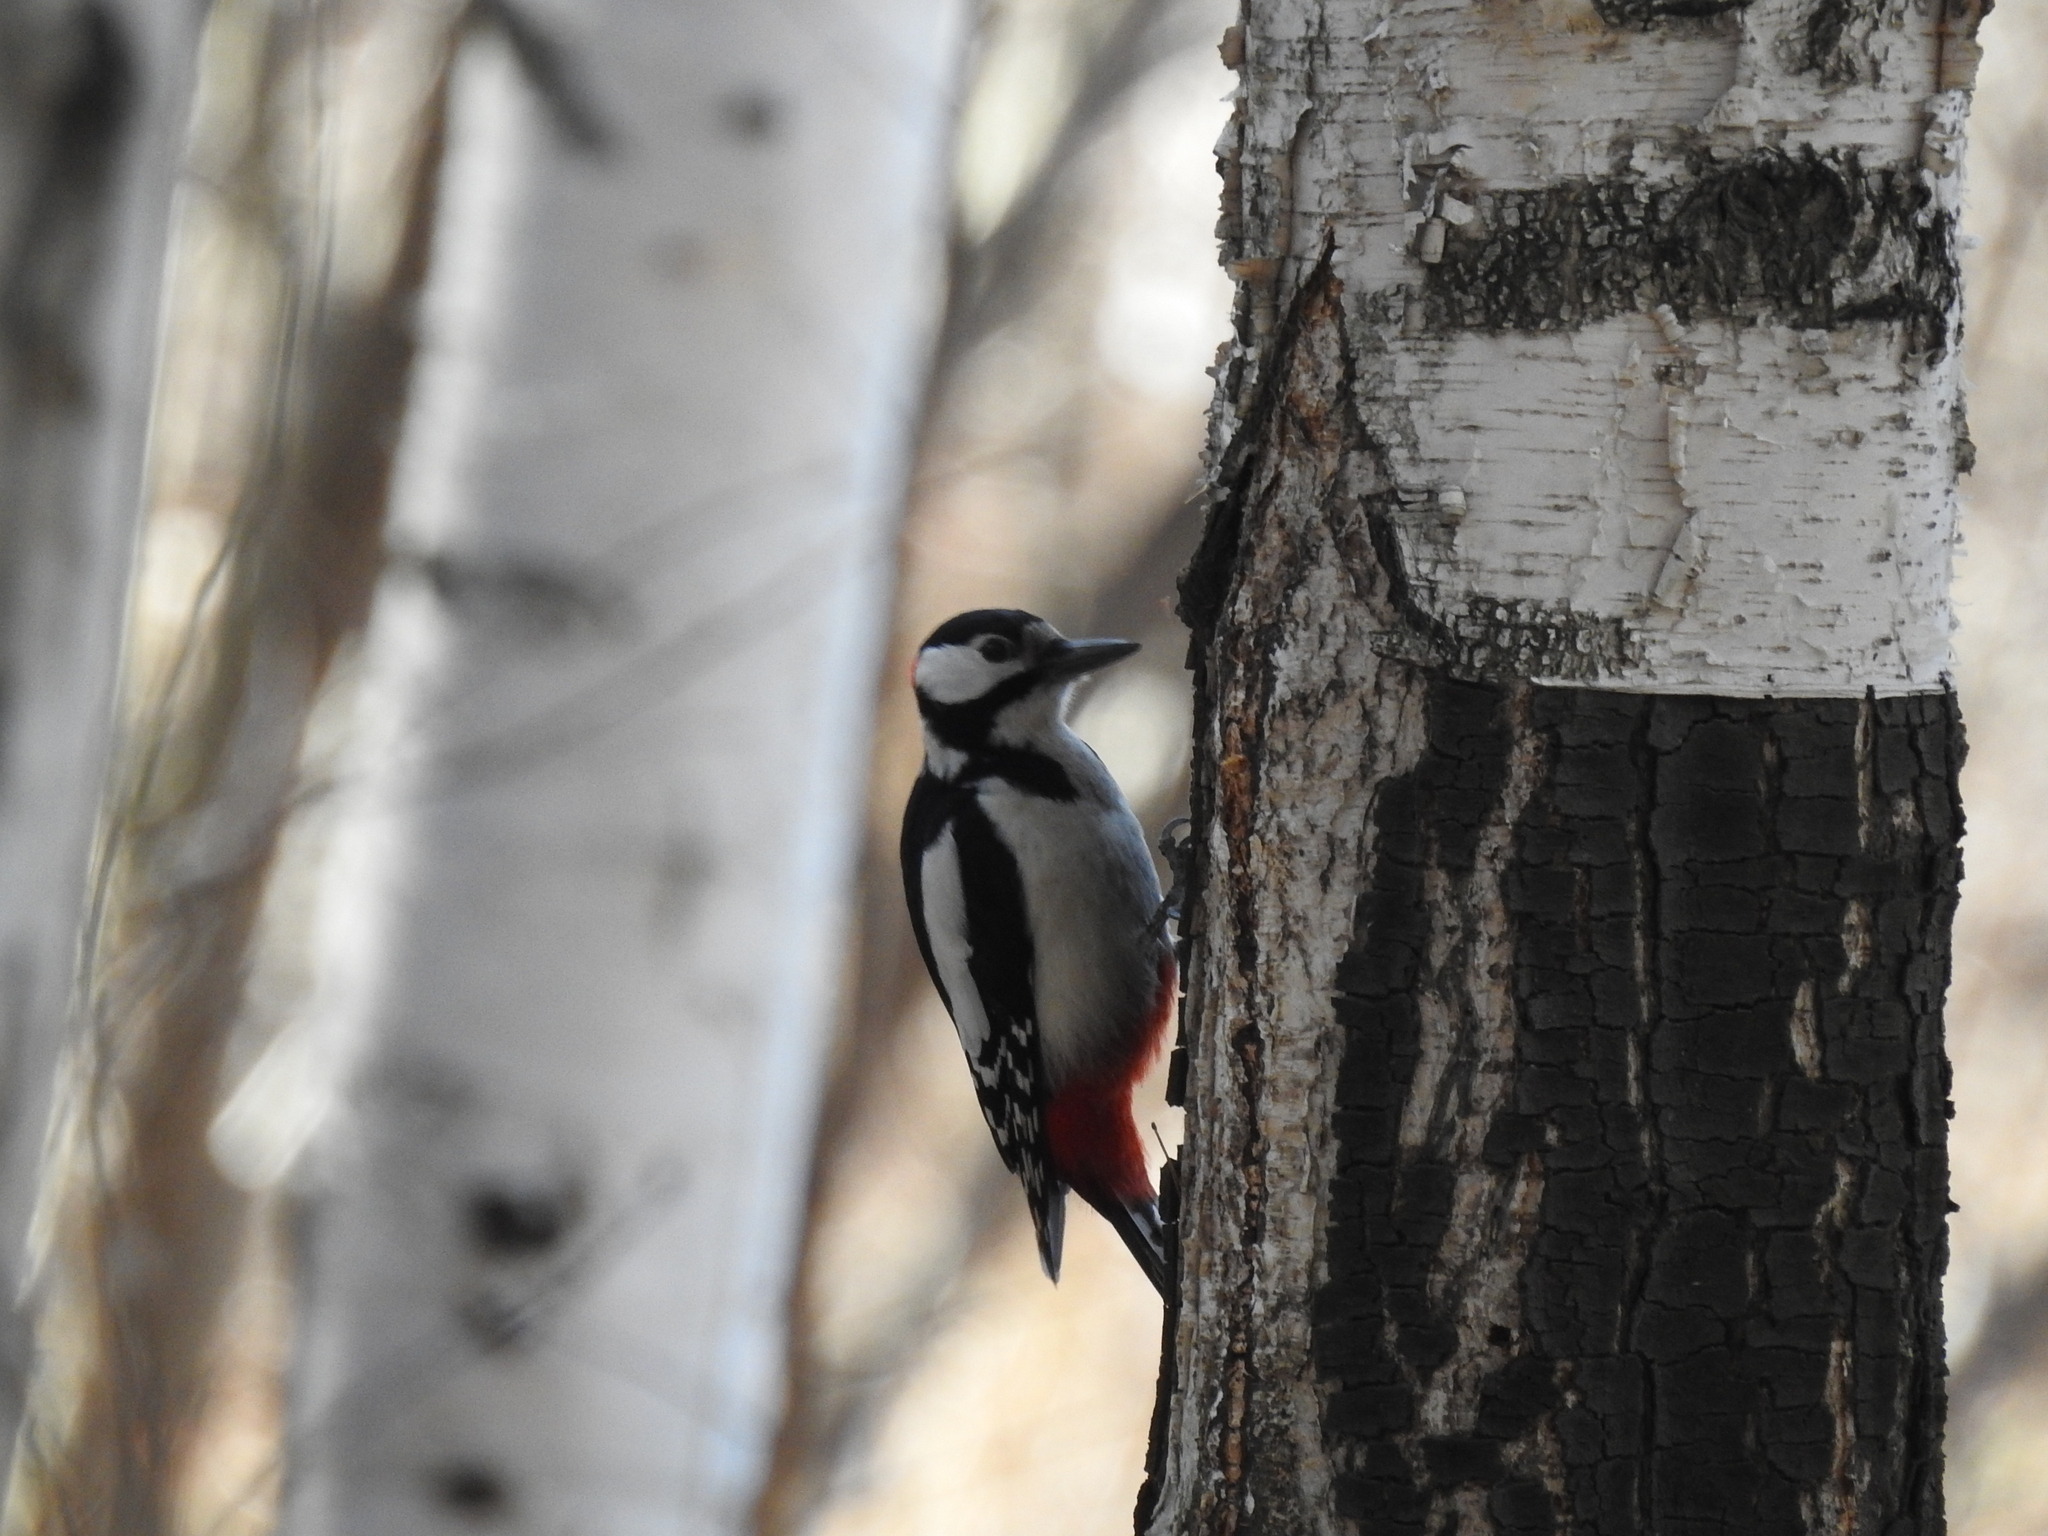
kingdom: Animalia
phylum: Chordata
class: Aves
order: Piciformes
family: Picidae
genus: Dendrocopos
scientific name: Dendrocopos major
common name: Great spotted woodpecker
